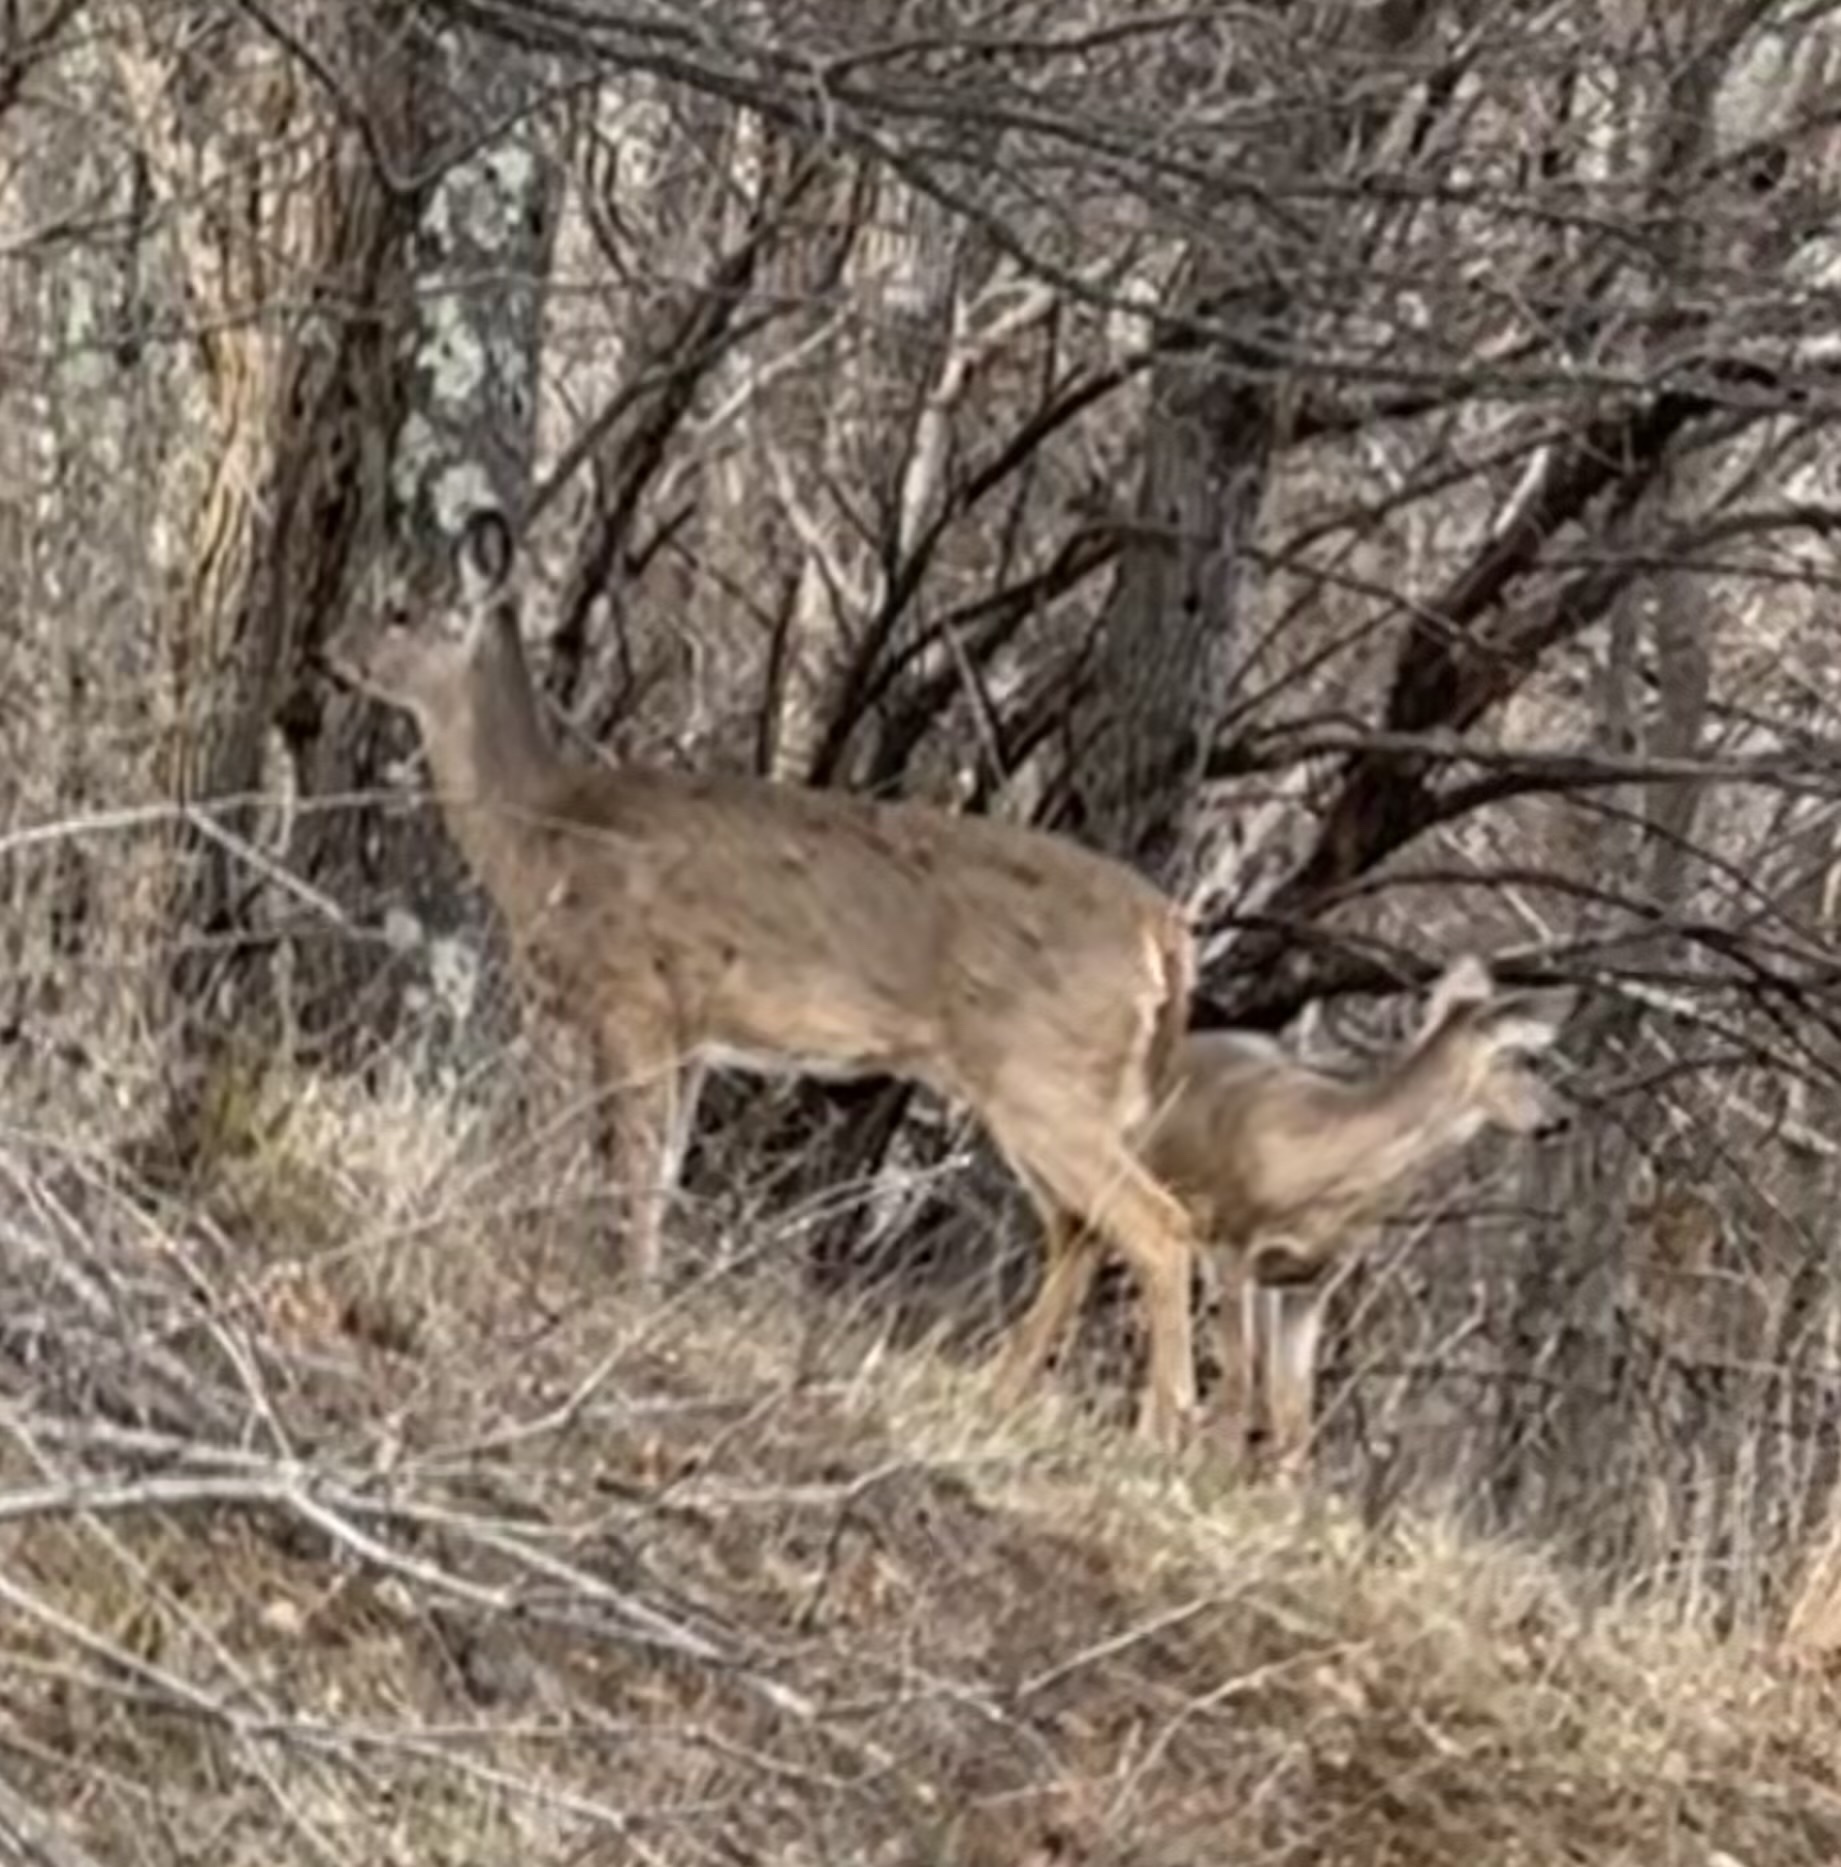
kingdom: Animalia
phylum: Chordata
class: Mammalia
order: Artiodactyla
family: Cervidae
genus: Odocoileus
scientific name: Odocoileus virginianus
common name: White-tailed deer
